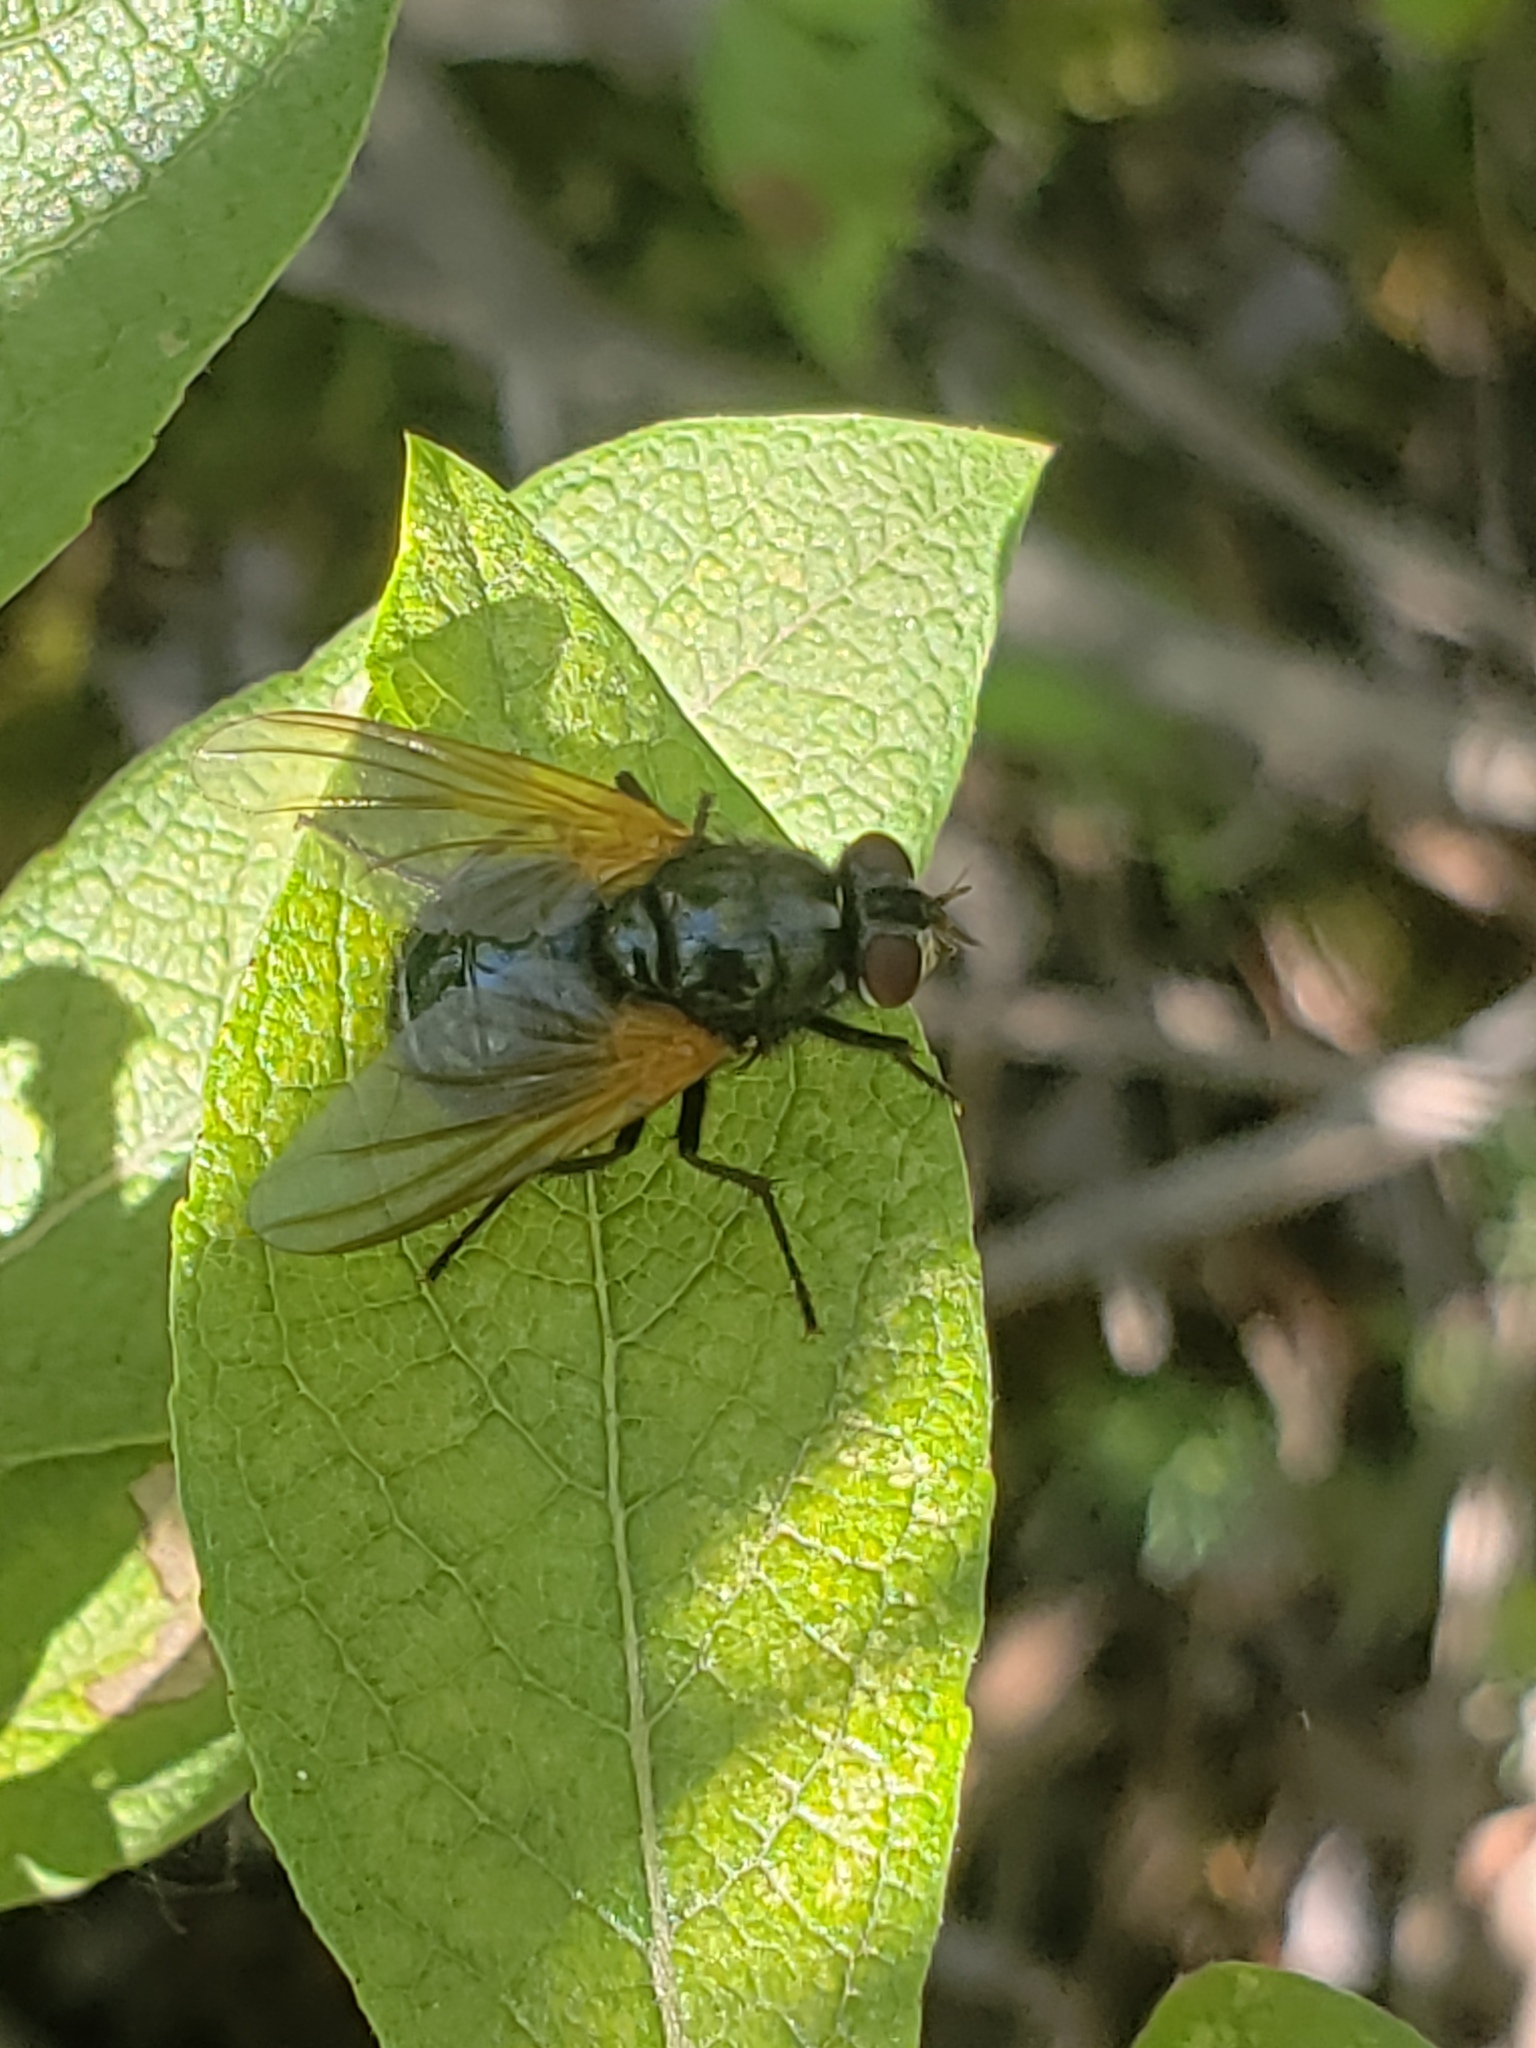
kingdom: Animalia
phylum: Arthropoda
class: Insecta
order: Diptera
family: Muscidae
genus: Mesembrina
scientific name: Mesembrina latreillii
